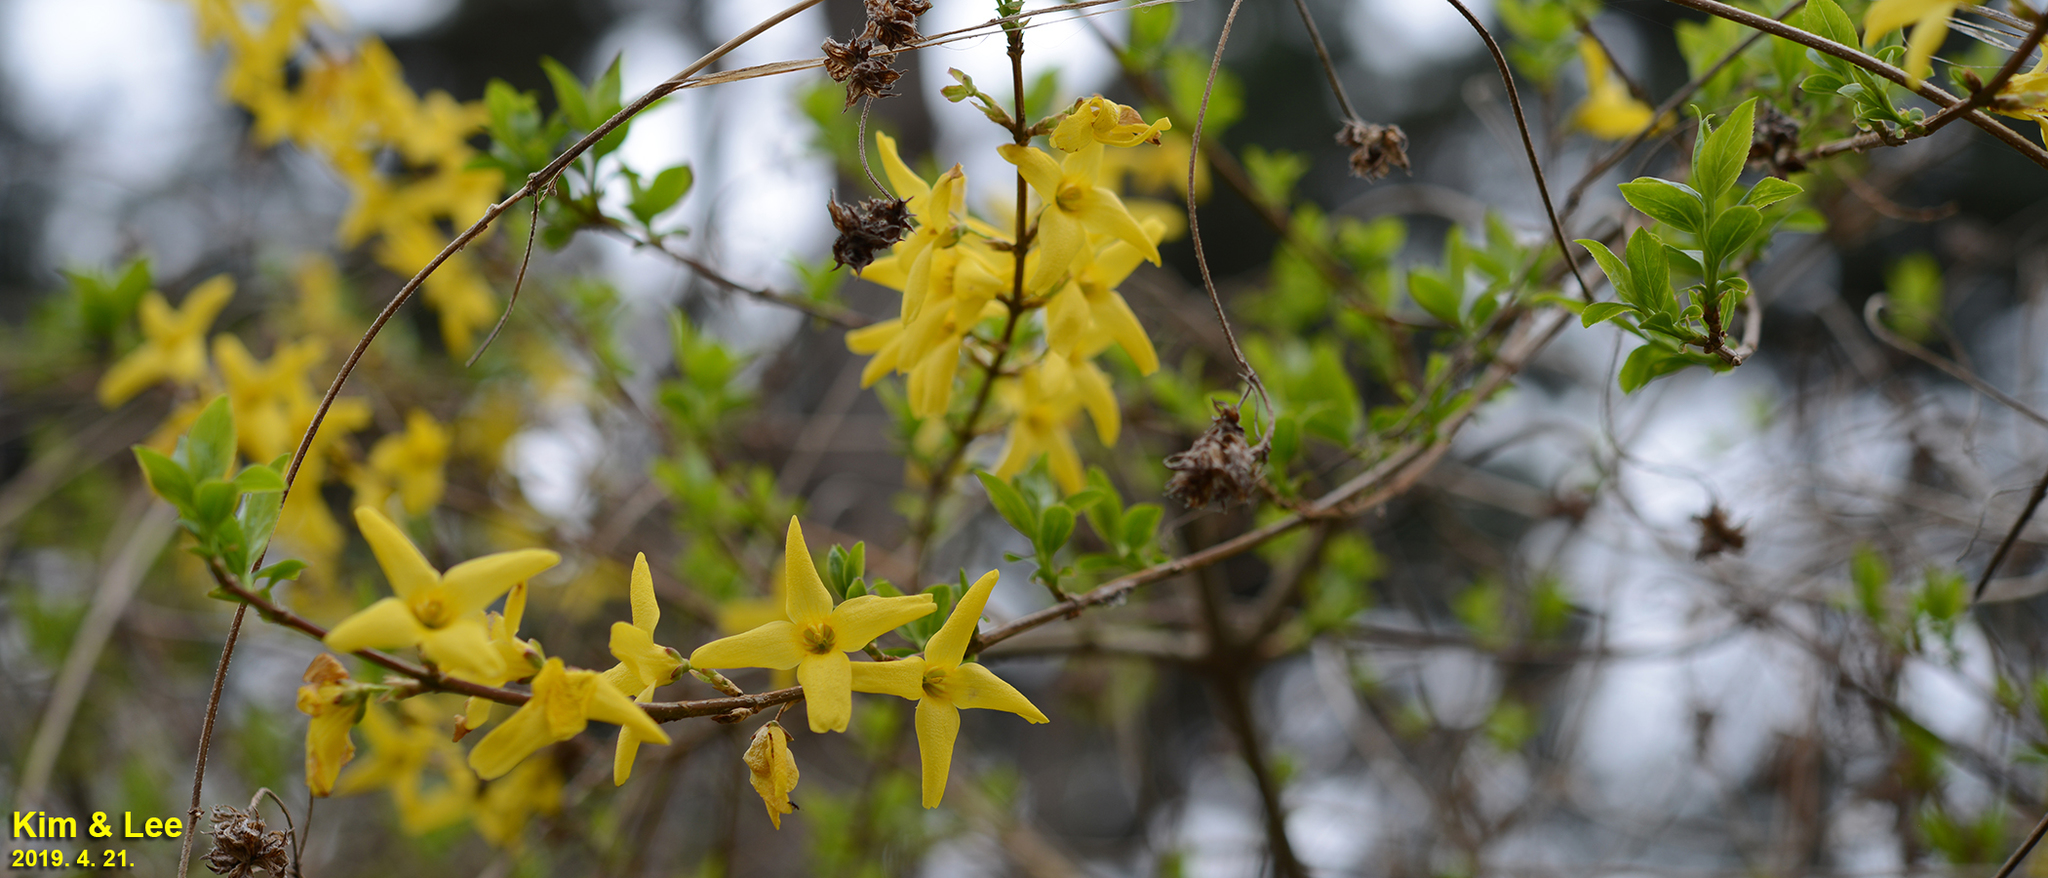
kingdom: Plantae
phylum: Tracheophyta
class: Magnoliopsida
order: Lamiales
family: Oleaceae
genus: Forsythia
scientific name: Forsythia koreana
